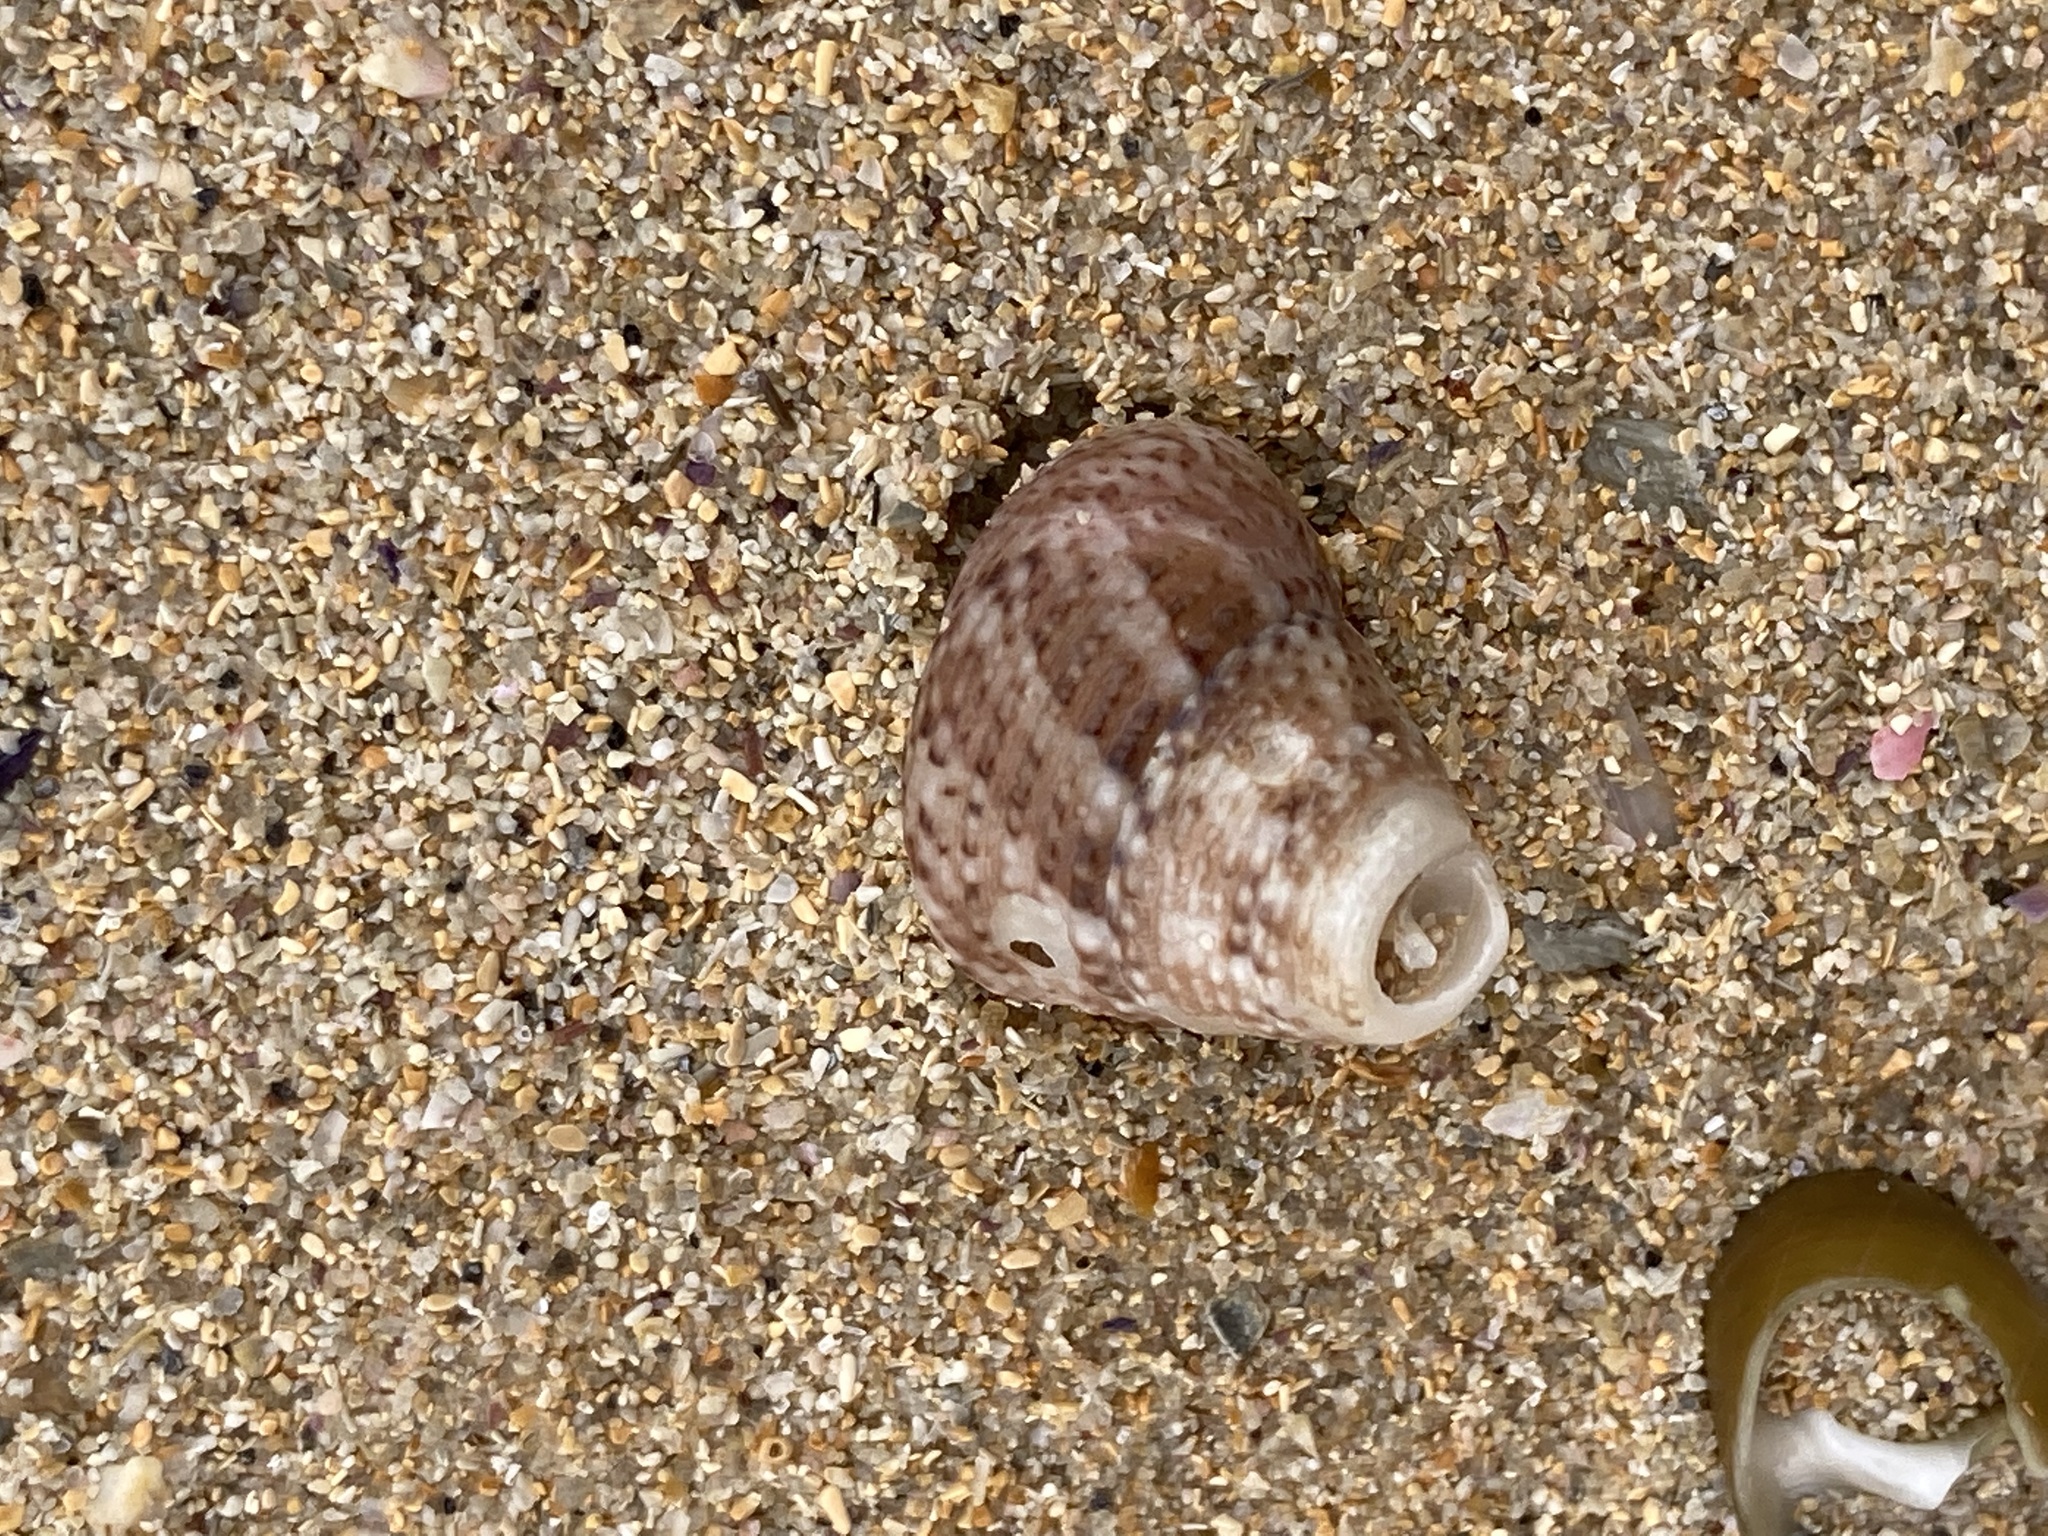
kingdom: Animalia
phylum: Mollusca
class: Gastropoda
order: Trochida
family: Trochidae
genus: Calthalotia
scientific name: Calthalotia fragum
